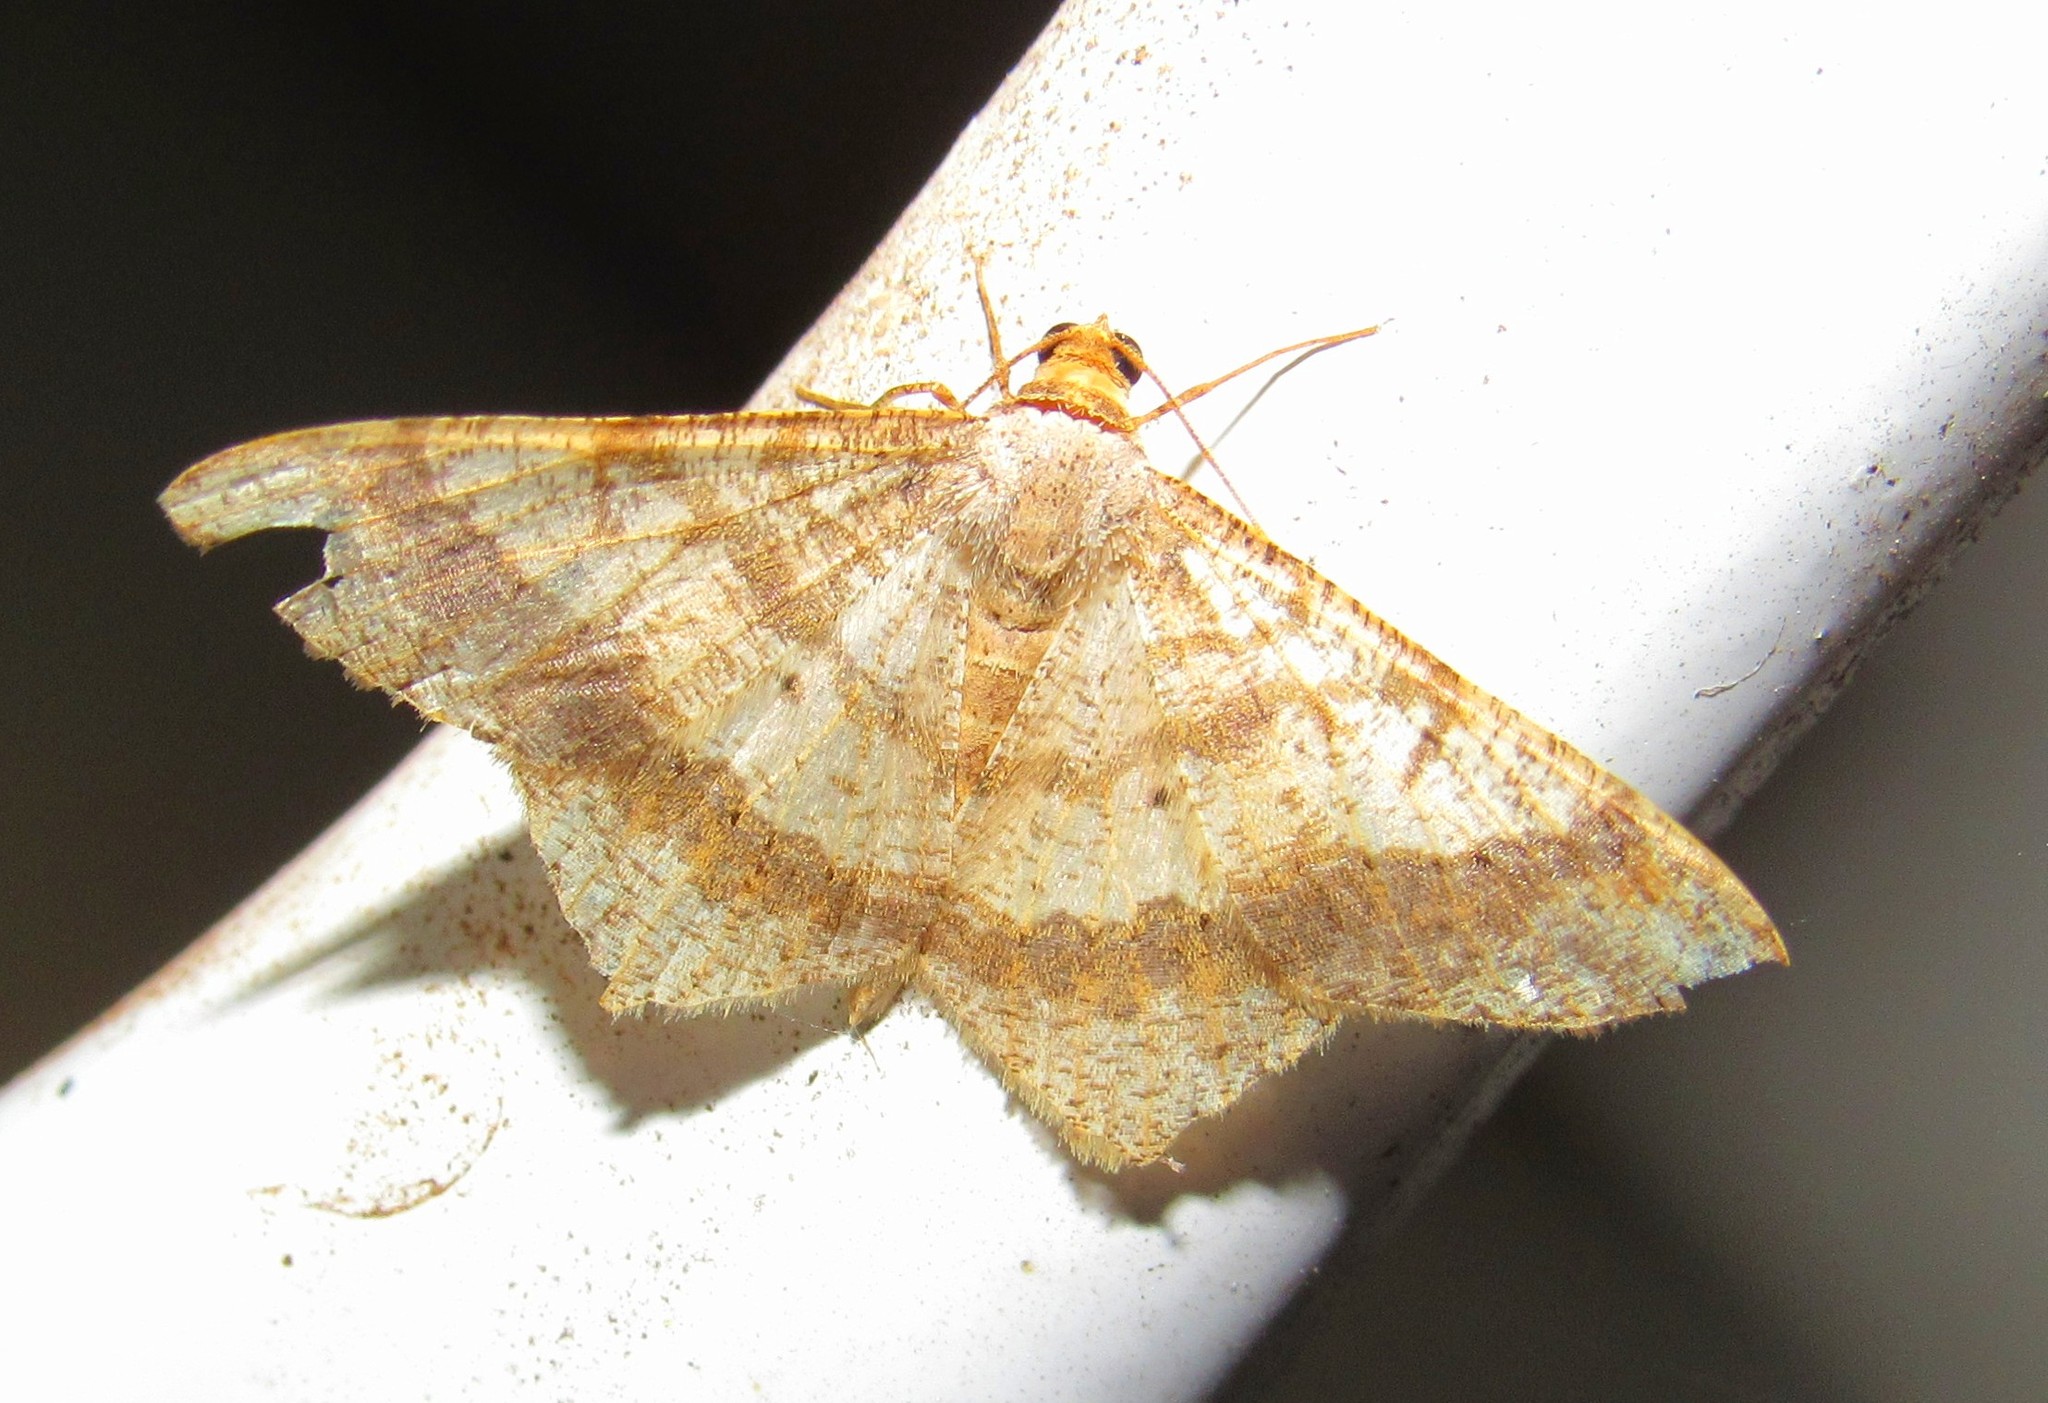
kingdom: Animalia
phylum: Arthropoda
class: Insecta
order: Lepidoptera
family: Geometridae
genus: Macaria
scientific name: Macaria abydata
